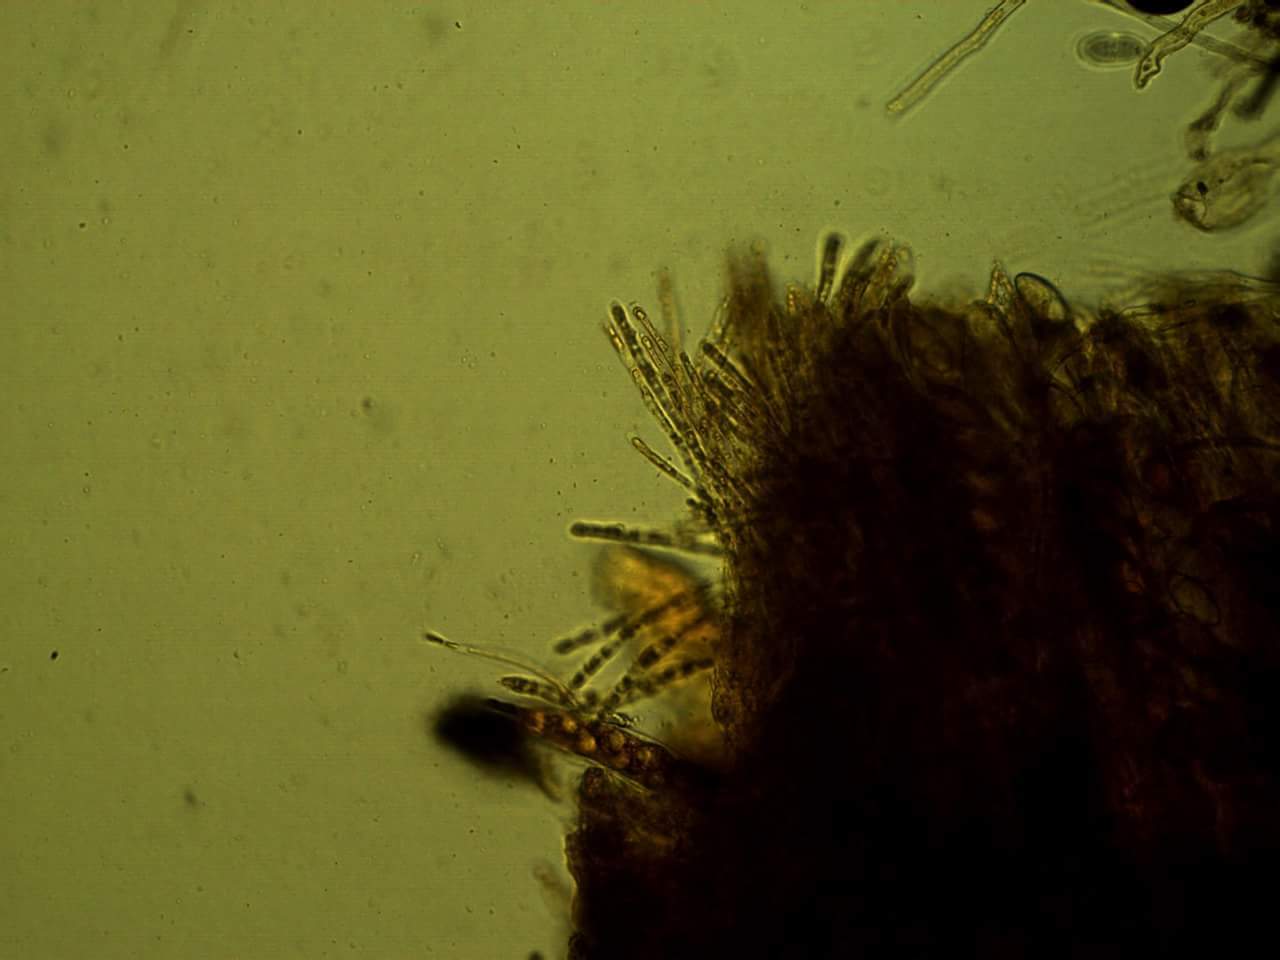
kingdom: Fungi
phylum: Ascomycota
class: Pezizomycetes
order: Pezizales
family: Pyronemataceae
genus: Geopora
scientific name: Geopora semi-immersa
